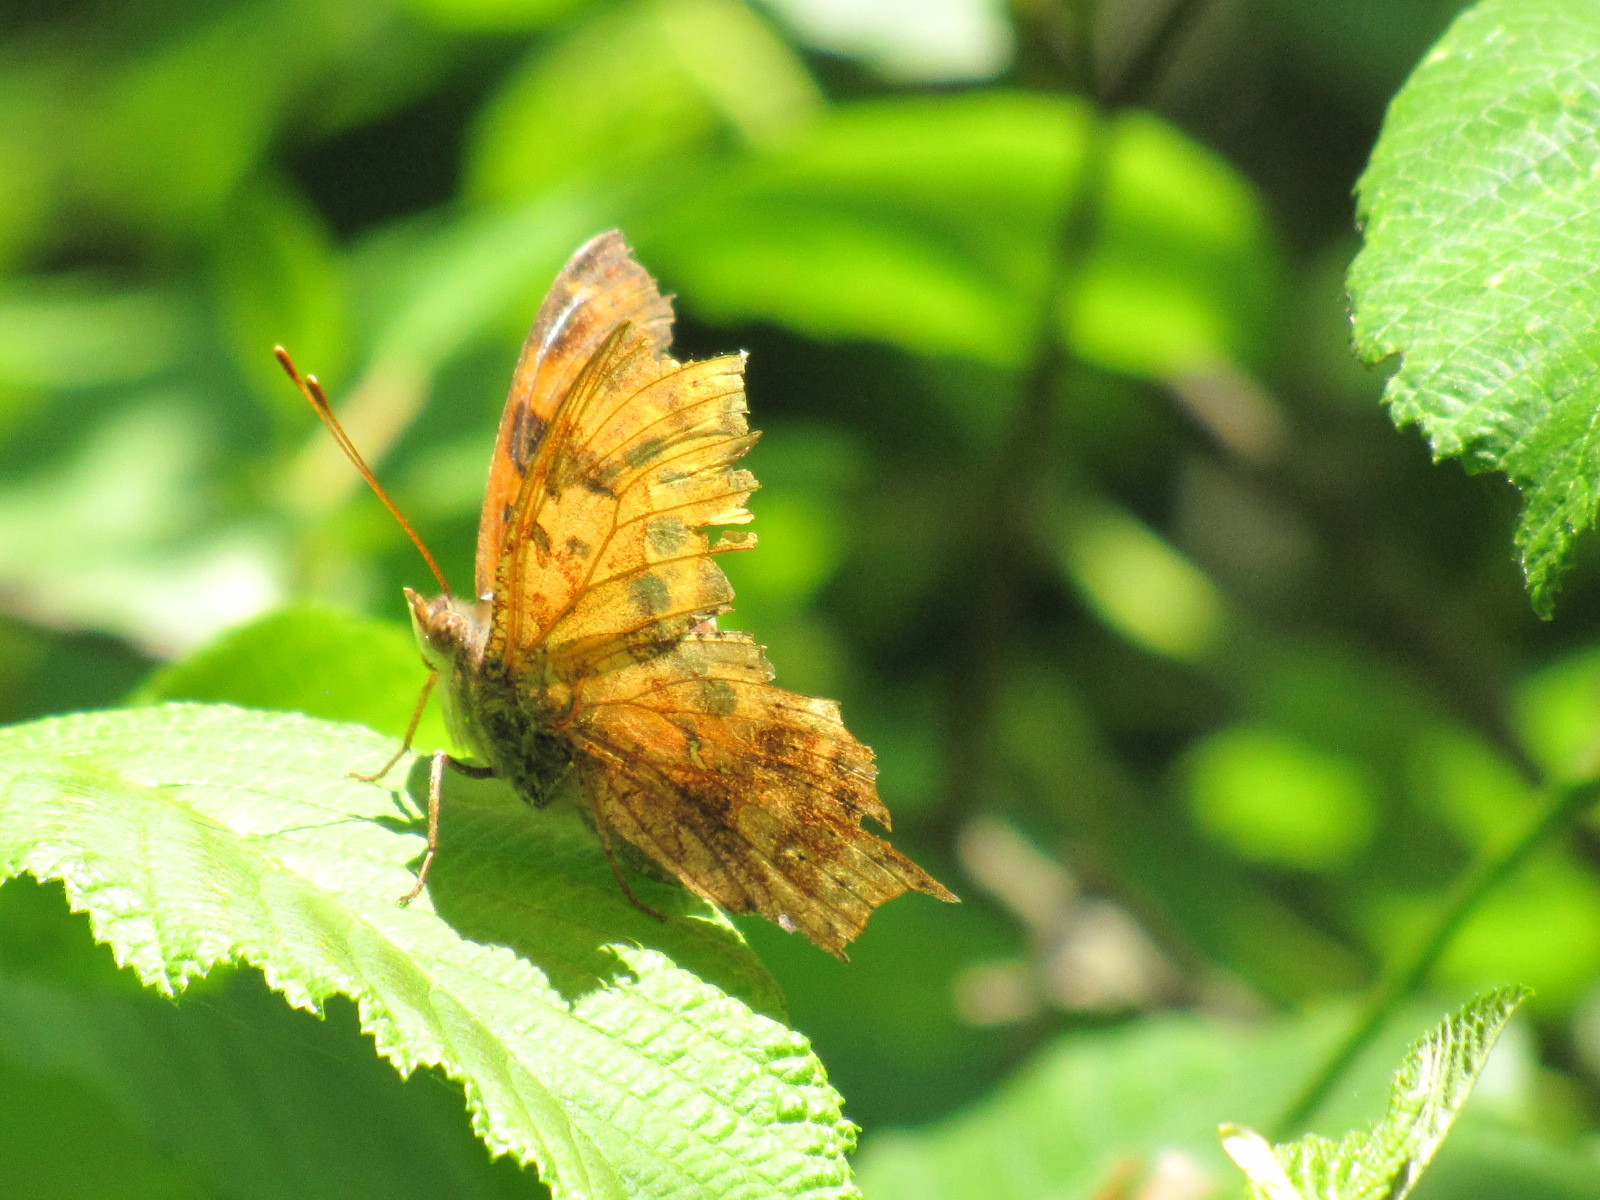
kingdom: Animalia
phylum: Arthropoda
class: Insecta
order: Lepidoptera
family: Nymphalidae
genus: Polygonia
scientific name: Polygonia interrogationis
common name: Question mark
